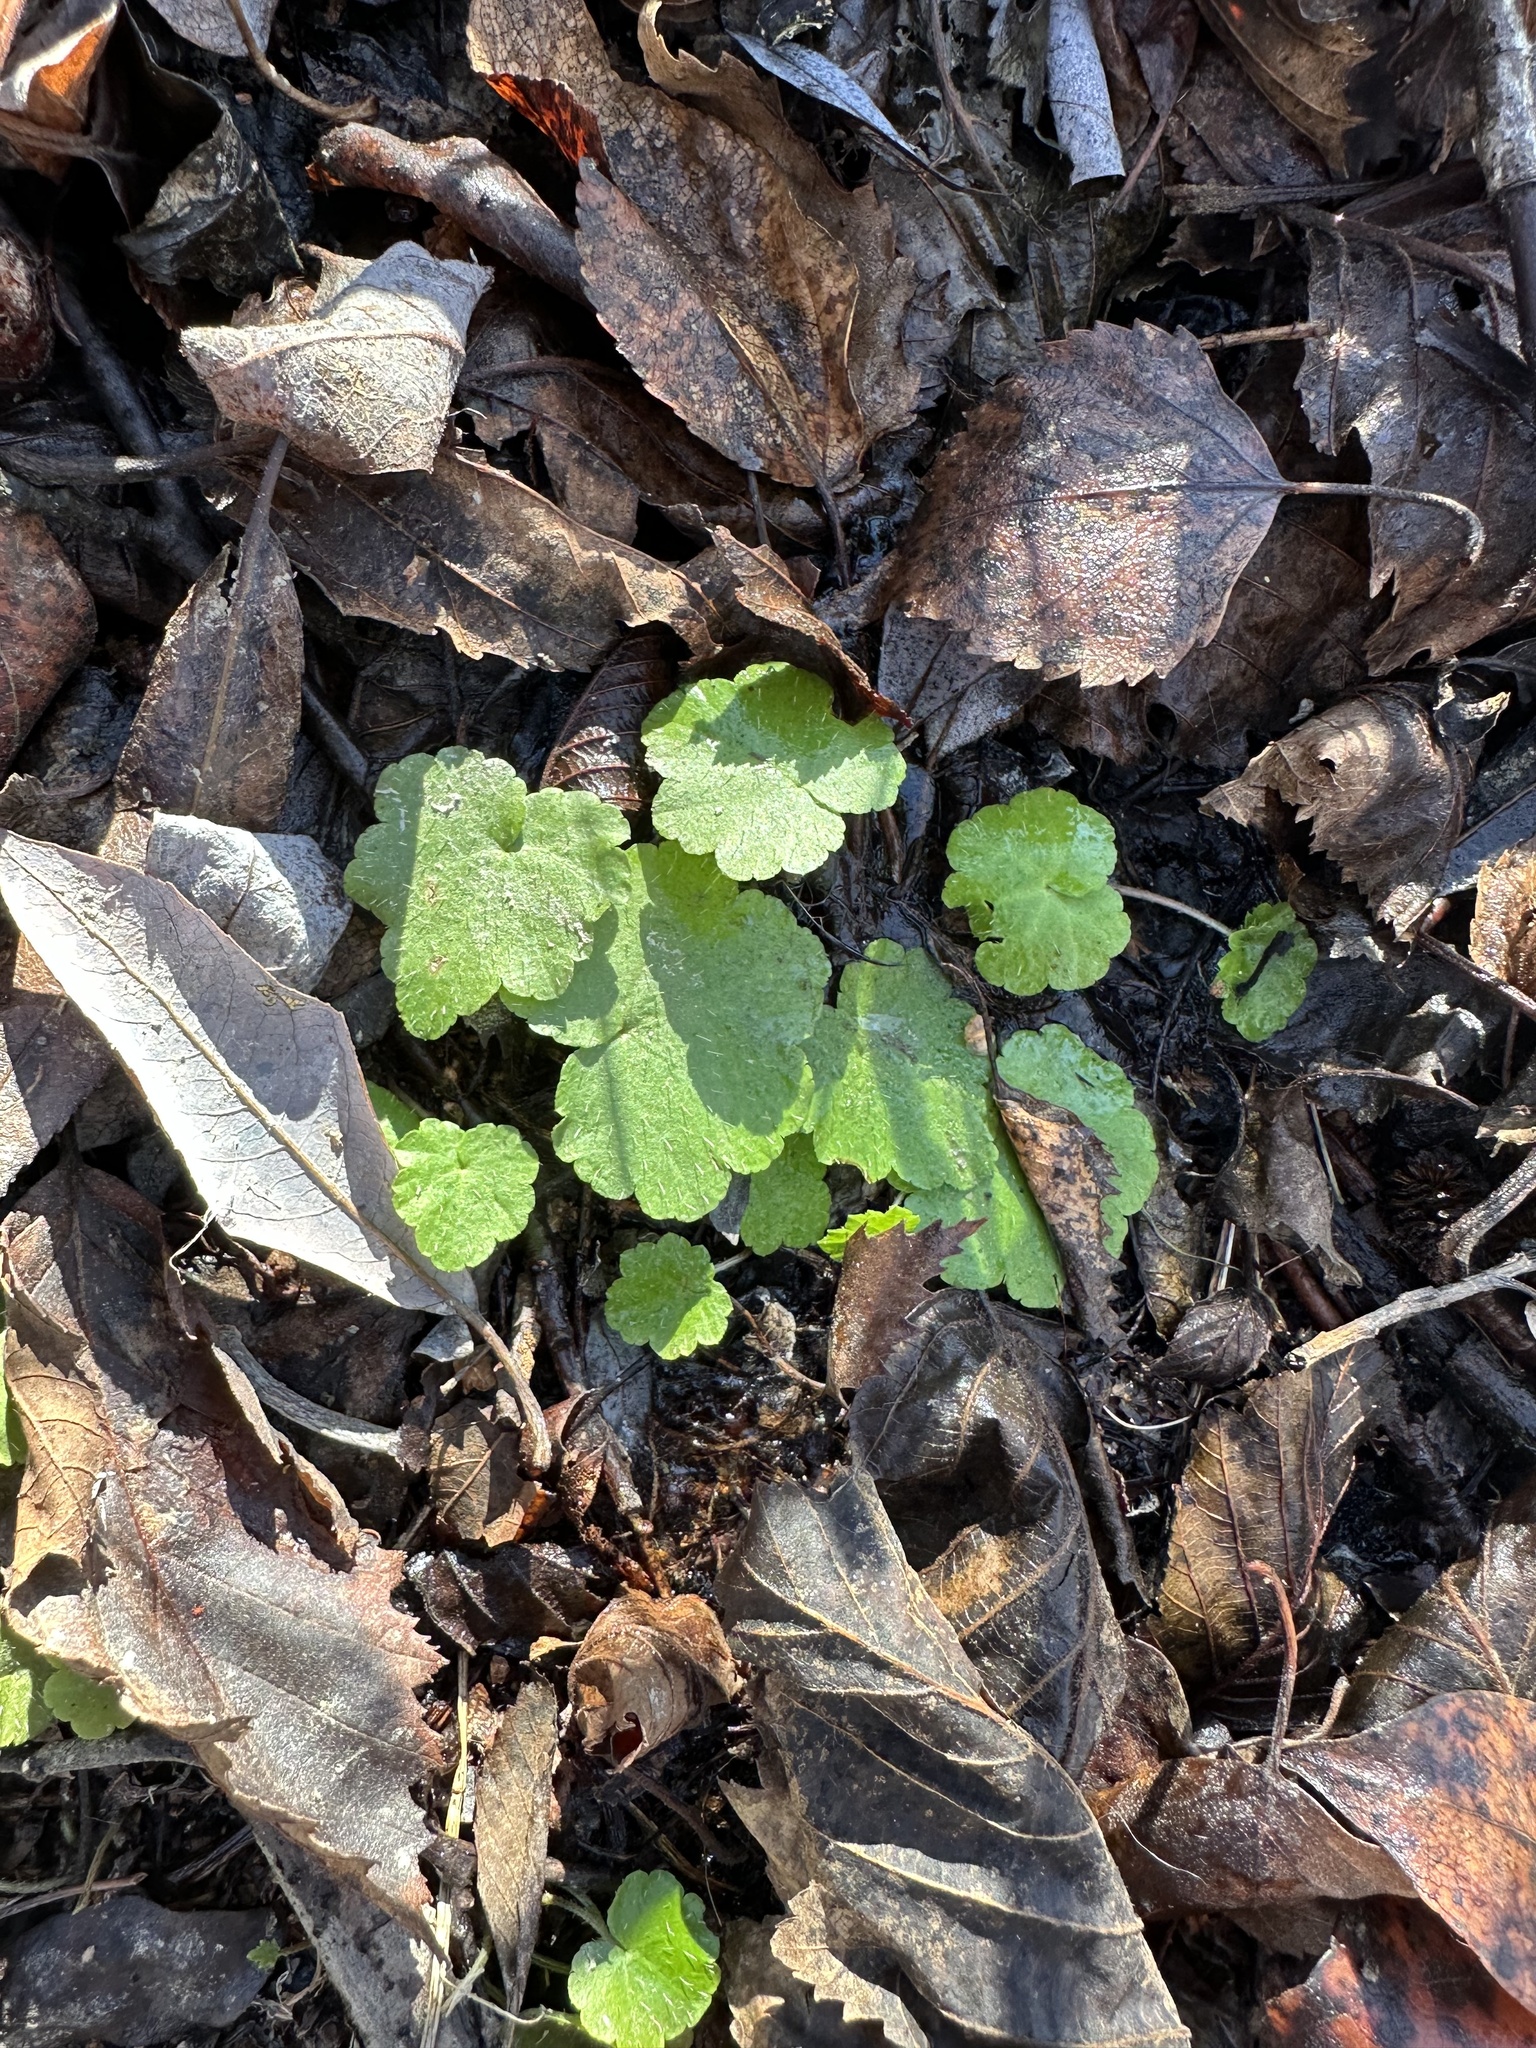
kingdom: Plantae
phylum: Tracheophyta
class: Magnoliopsida
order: Saxifragales
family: Saxifragaceae
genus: Mitella
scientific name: Mitella nuda
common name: Bare-stemmed bishop's-cap
